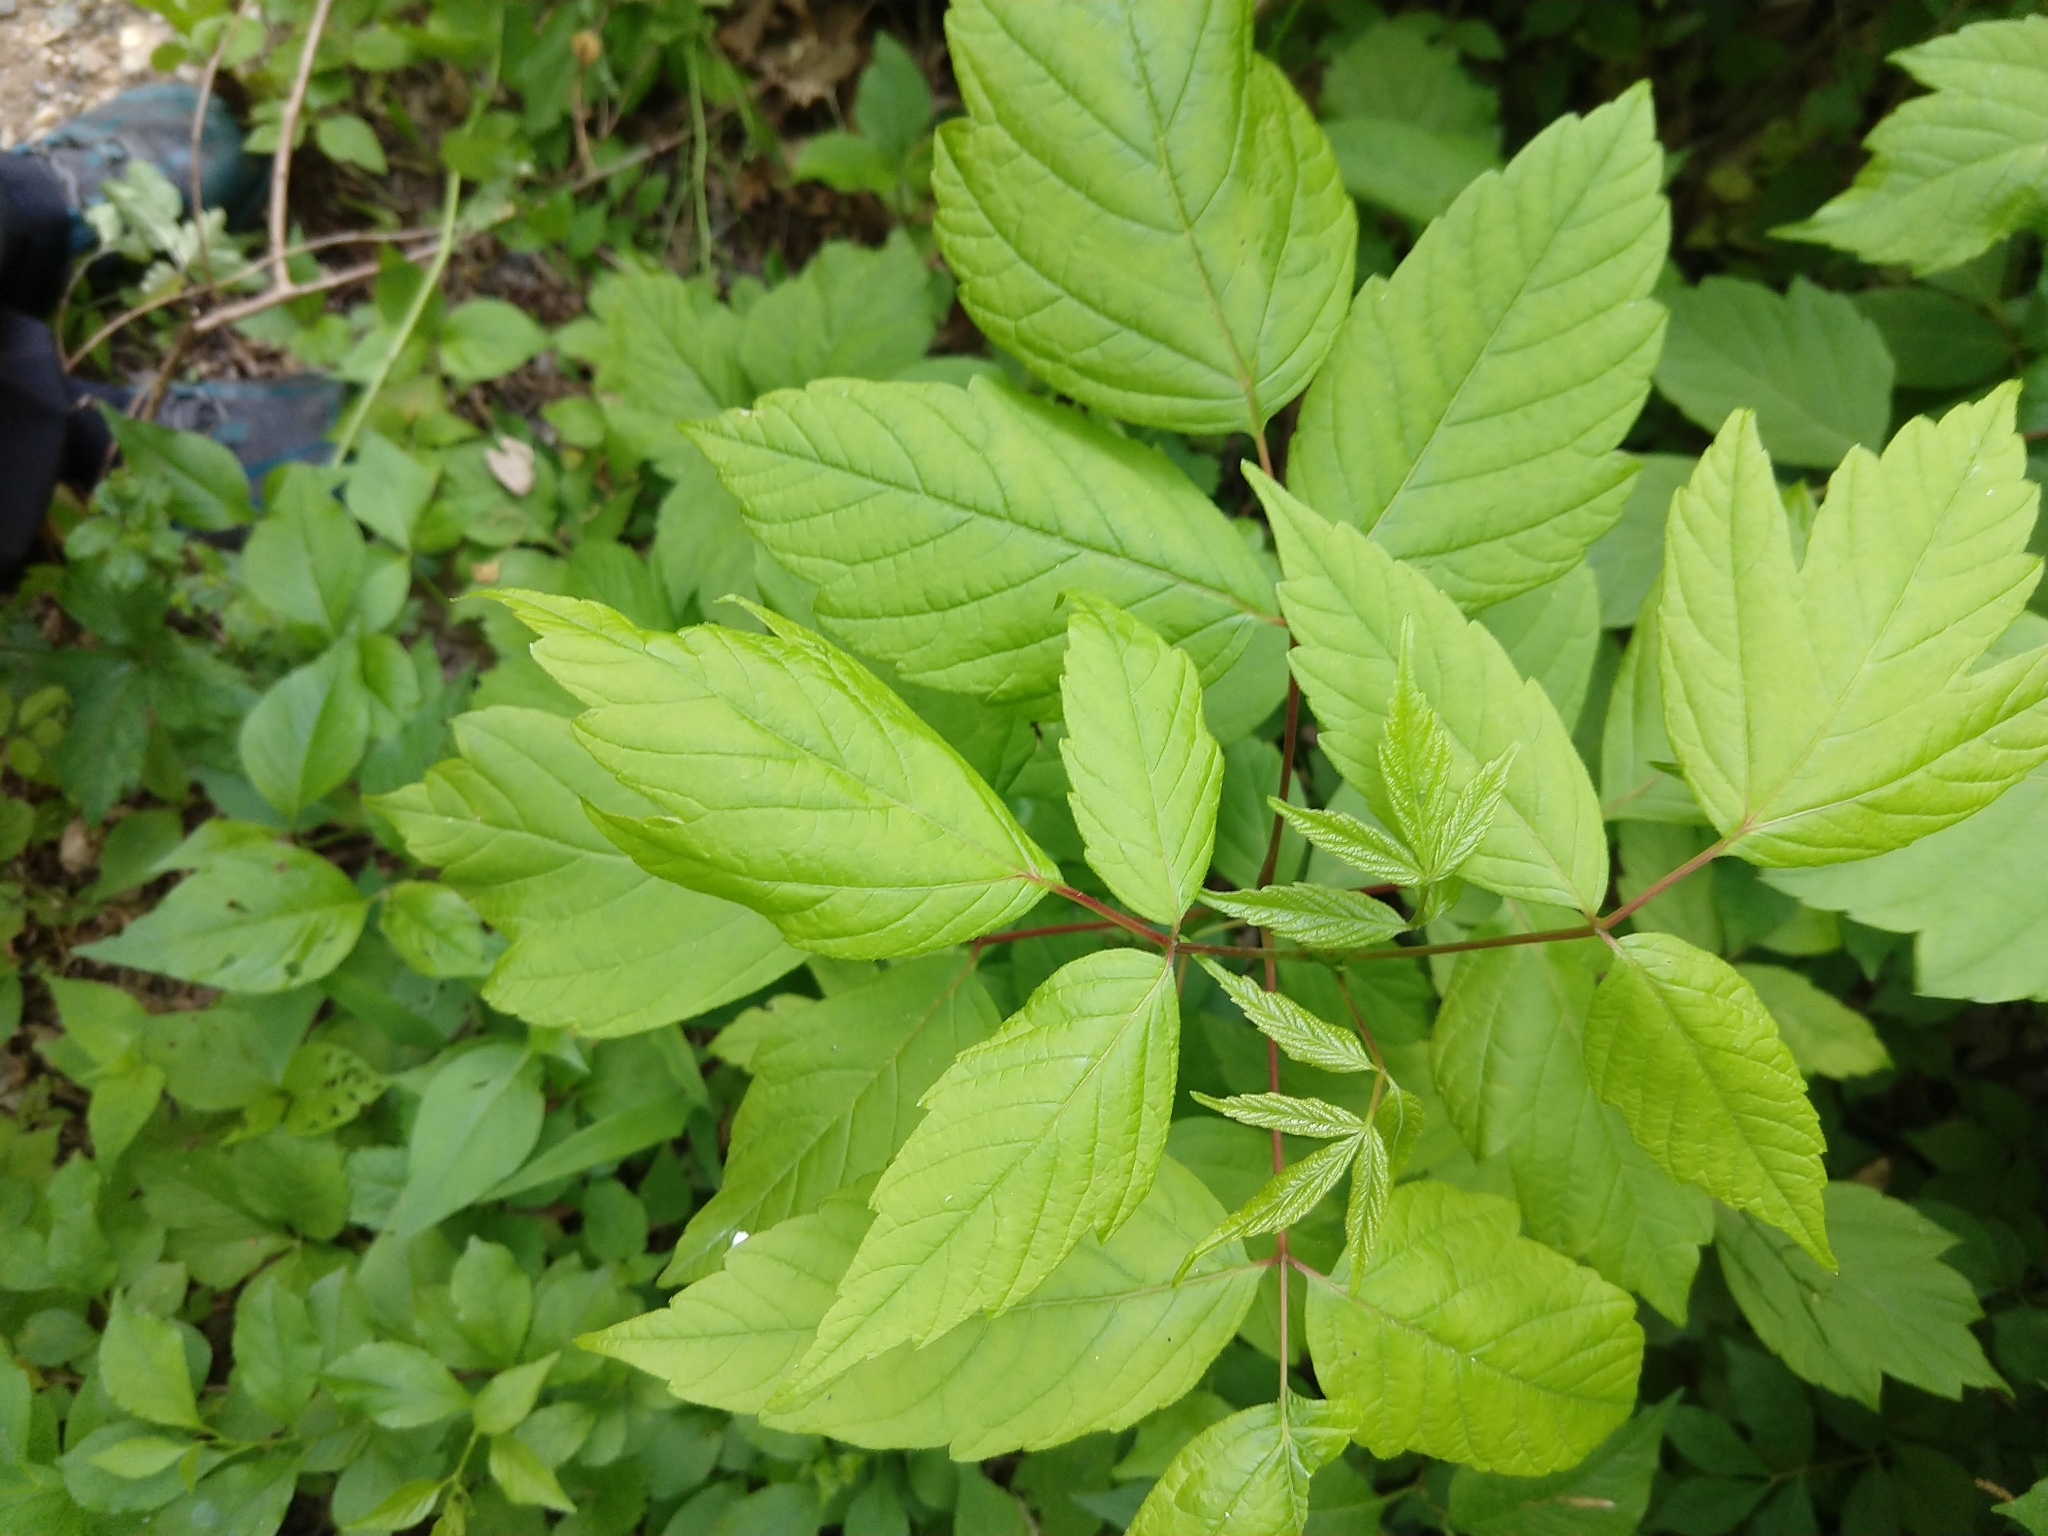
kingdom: Plantae
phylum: Tracheophyta
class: Magnoliopsida
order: Sapindales
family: Sapindaceae
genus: Acer
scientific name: Acer negundo
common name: Ashleaf maple
